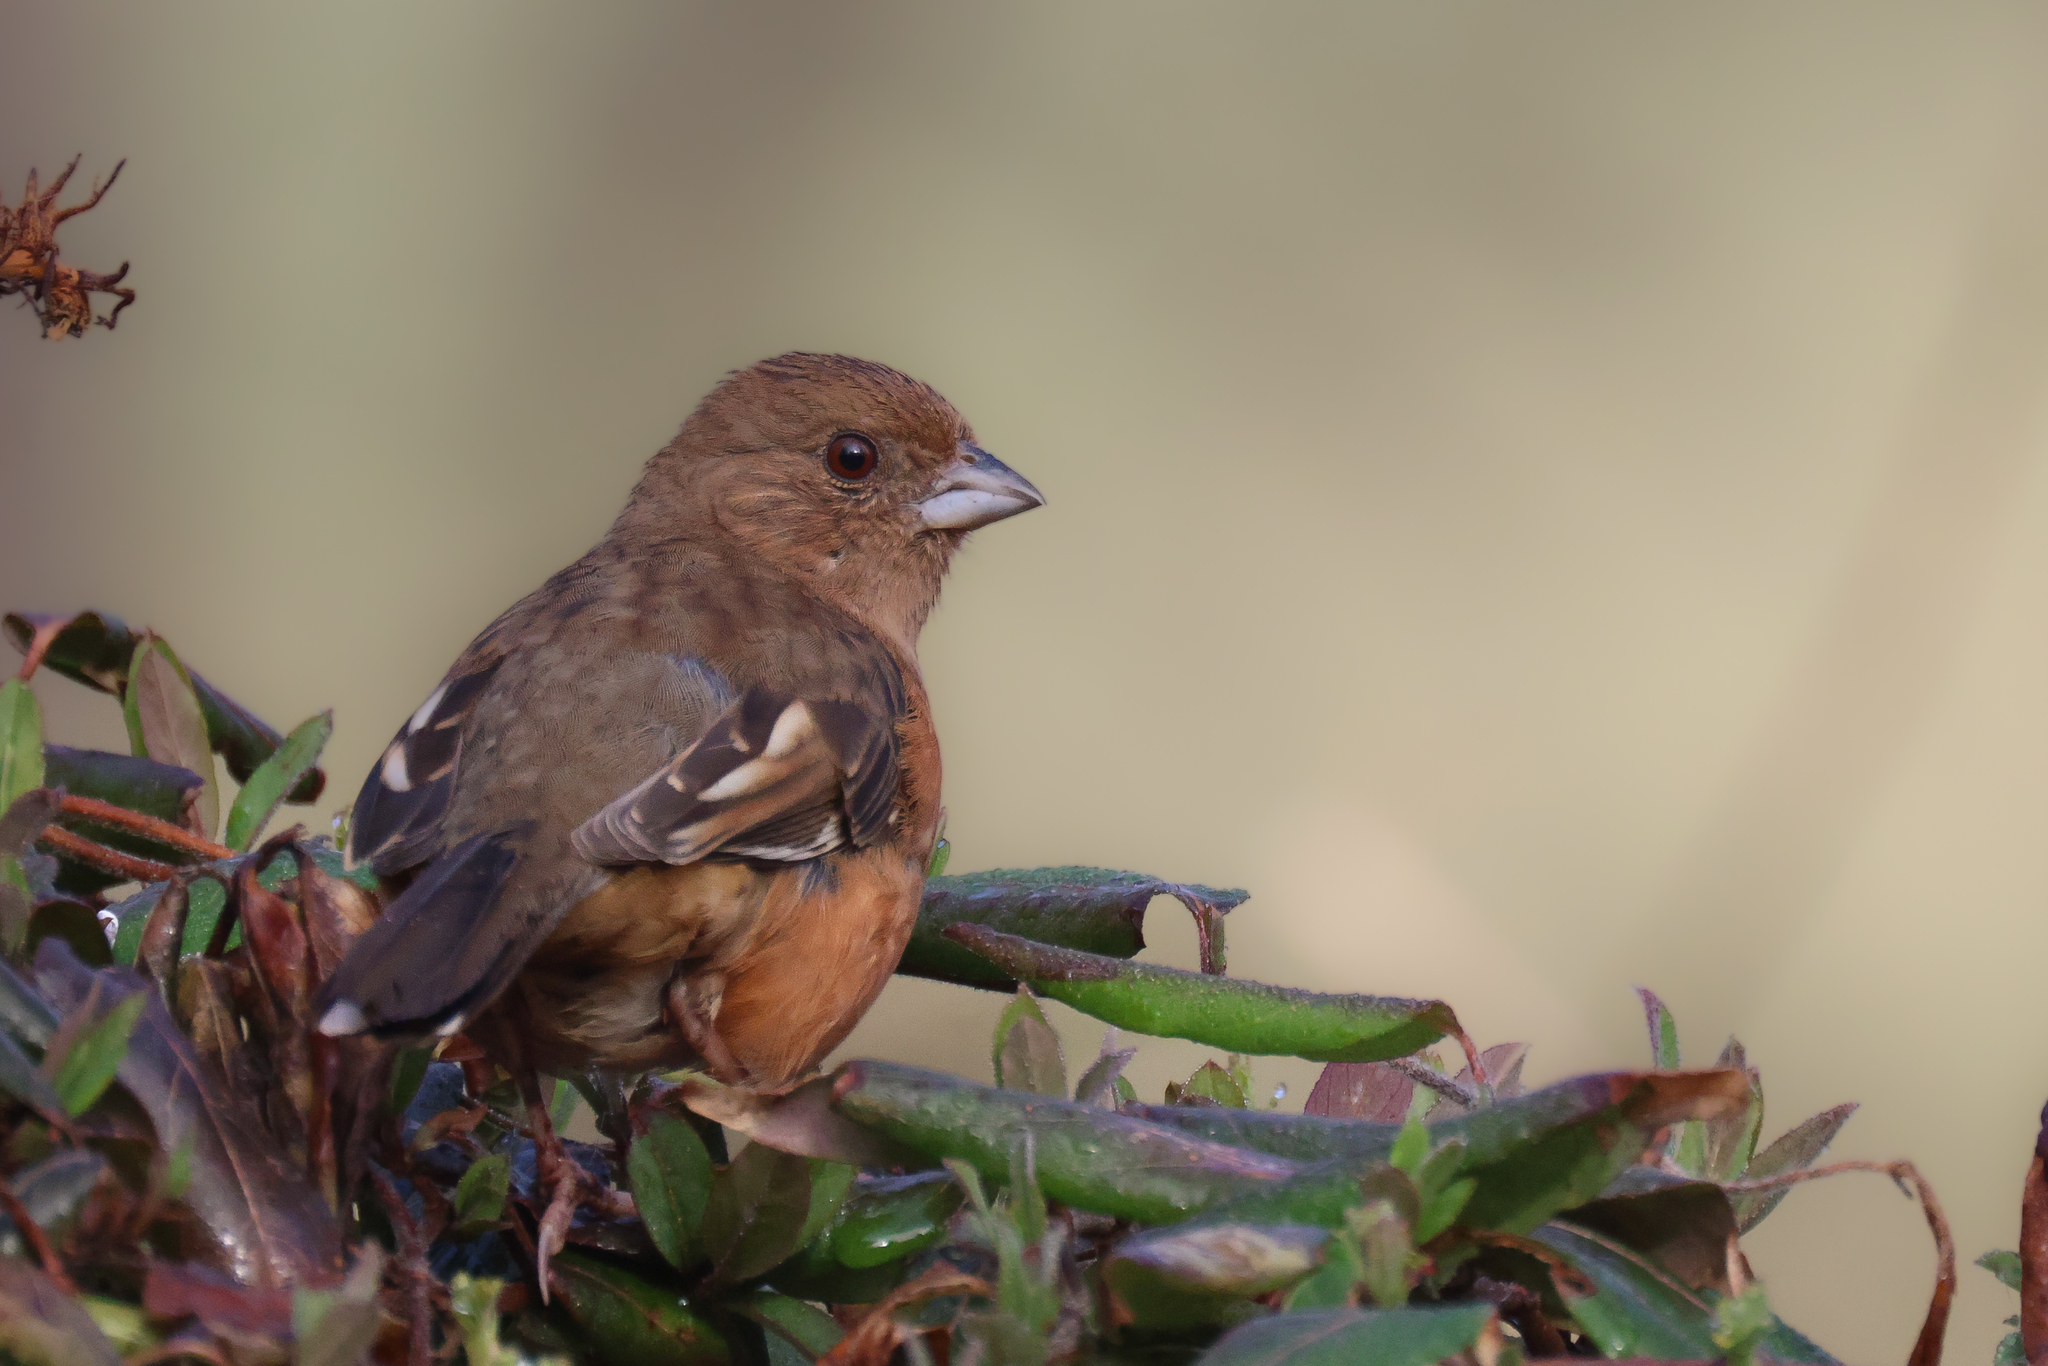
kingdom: Animalia
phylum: Chordata
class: Aves
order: Passeriformes
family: Passerellidae
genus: Pipilo
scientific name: Pipilo erythrophthalmus
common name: Eastern towhee
